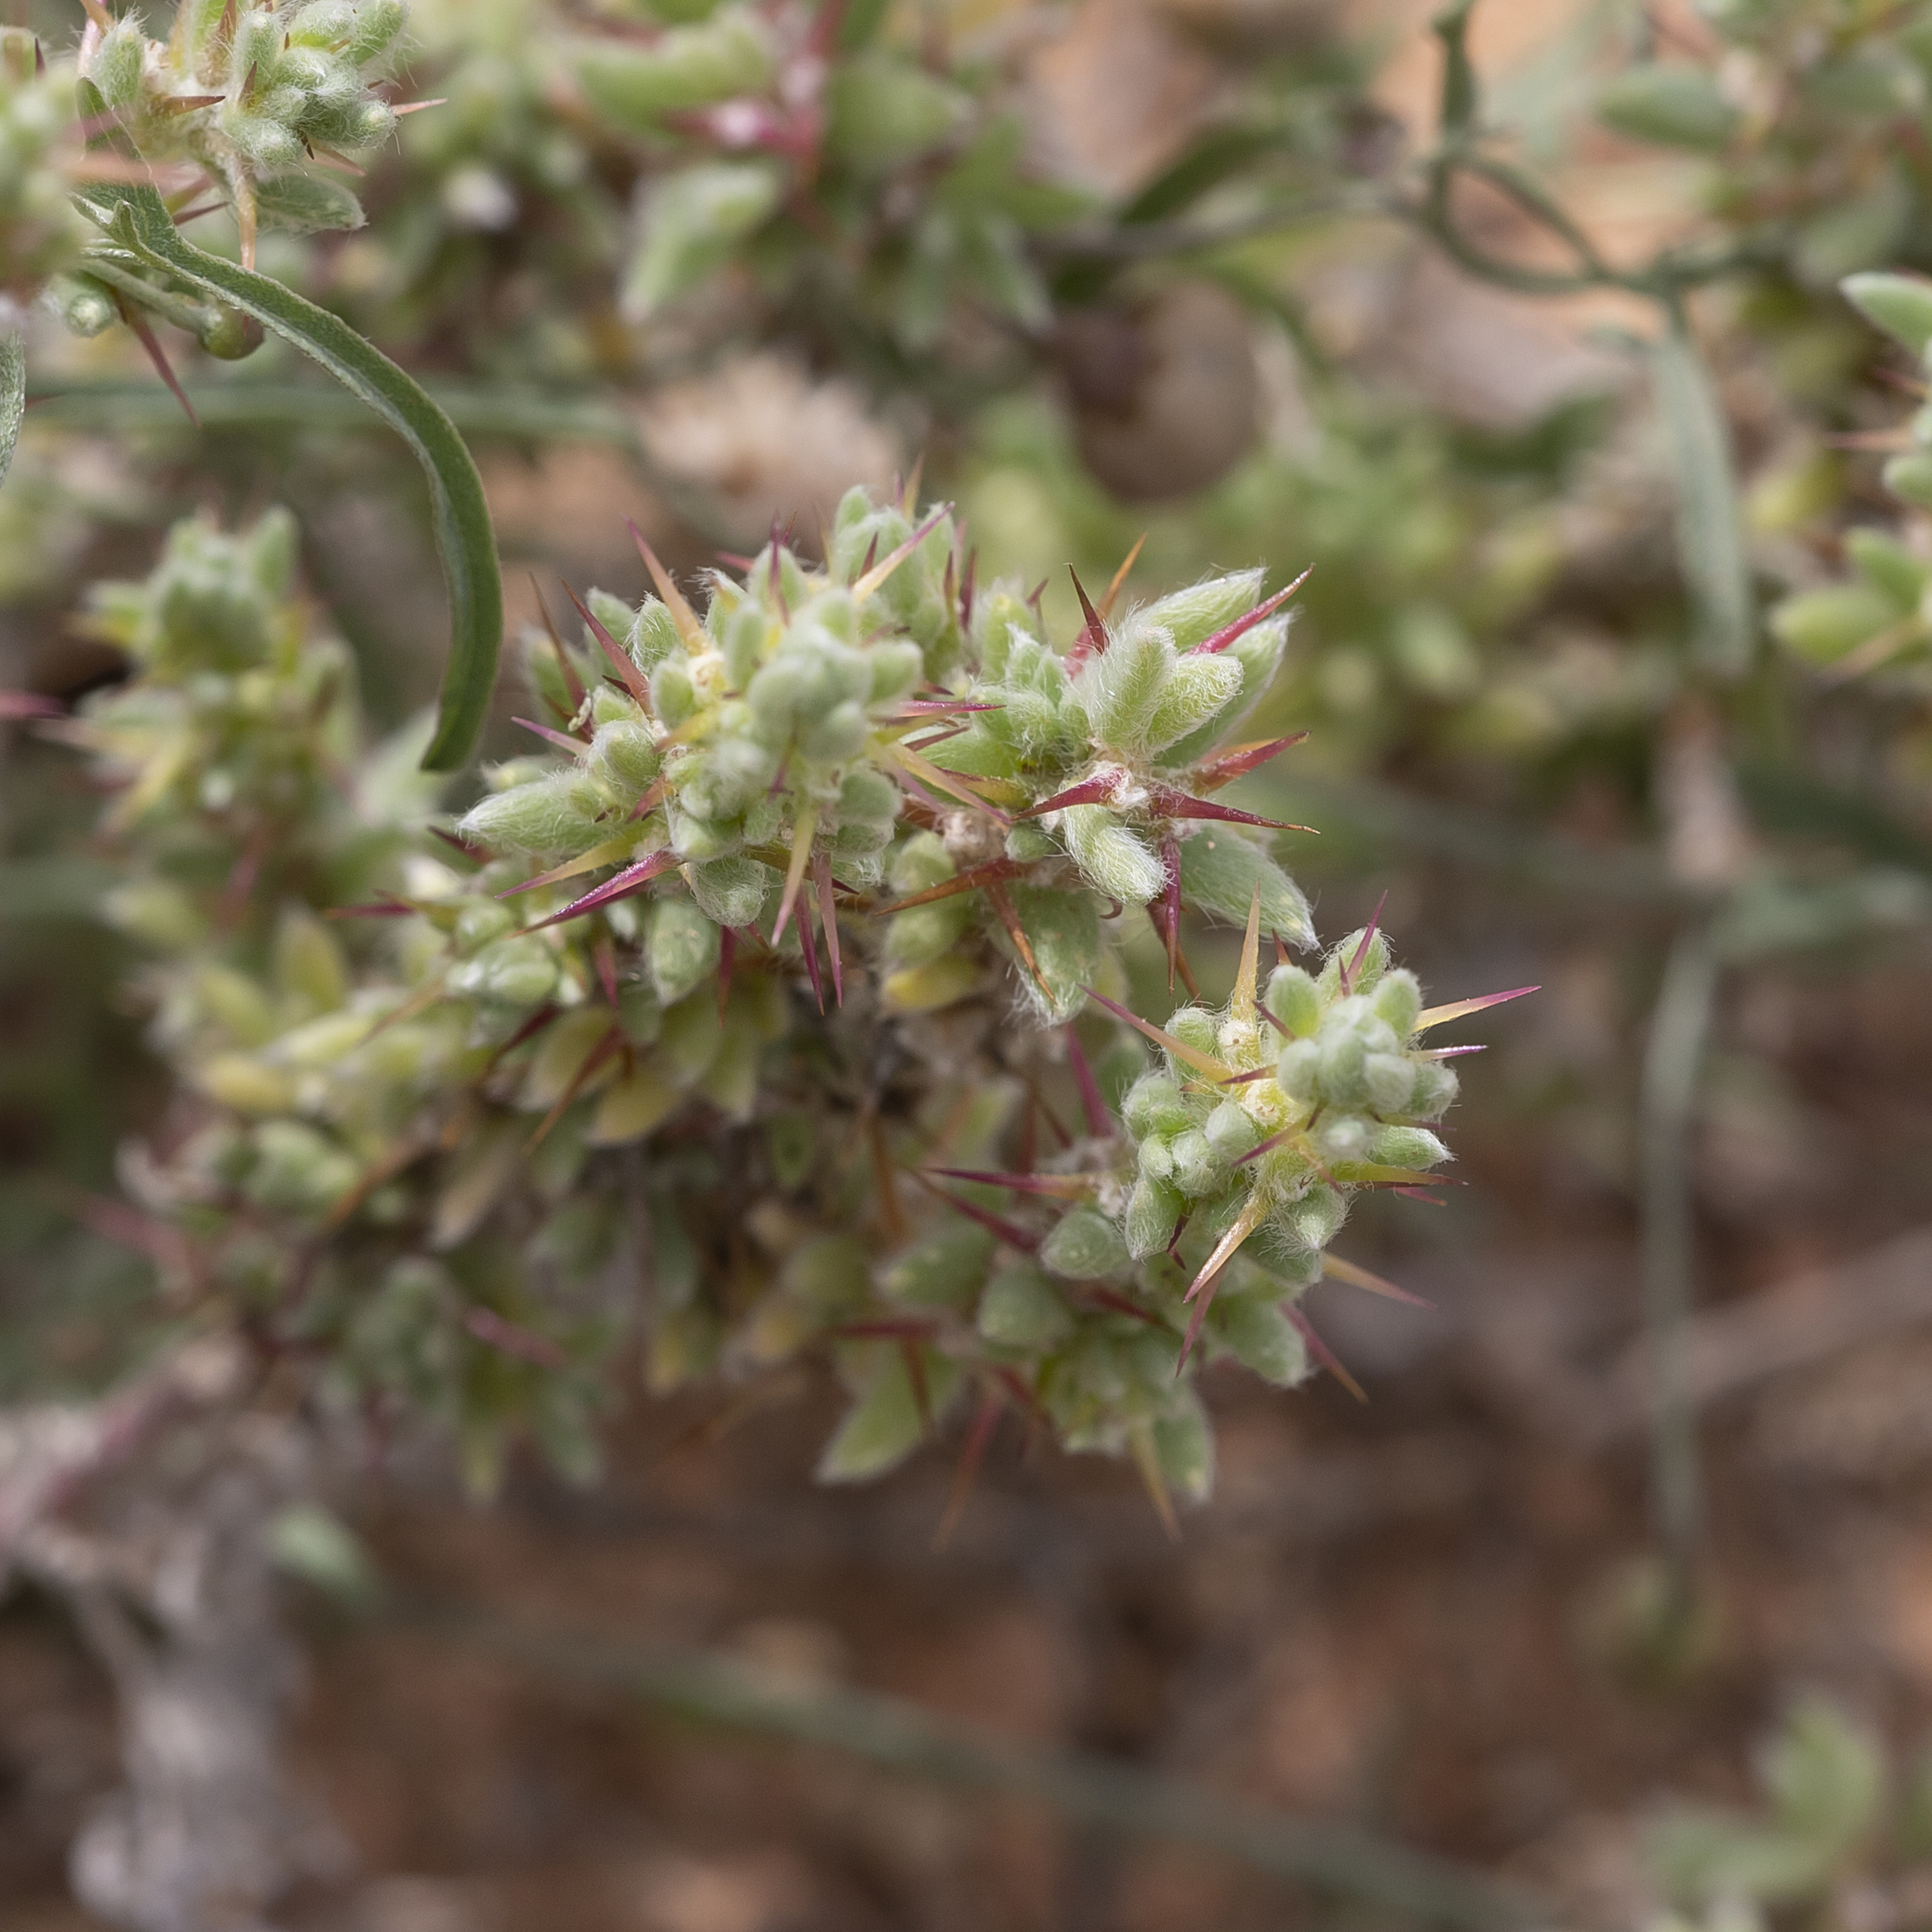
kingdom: Plantae
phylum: Tracheophyta
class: Magnoliopsida
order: Caryophyllales
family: Amaranthaceae
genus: Sclerolaena
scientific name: Sclerolaena patenticuspis
